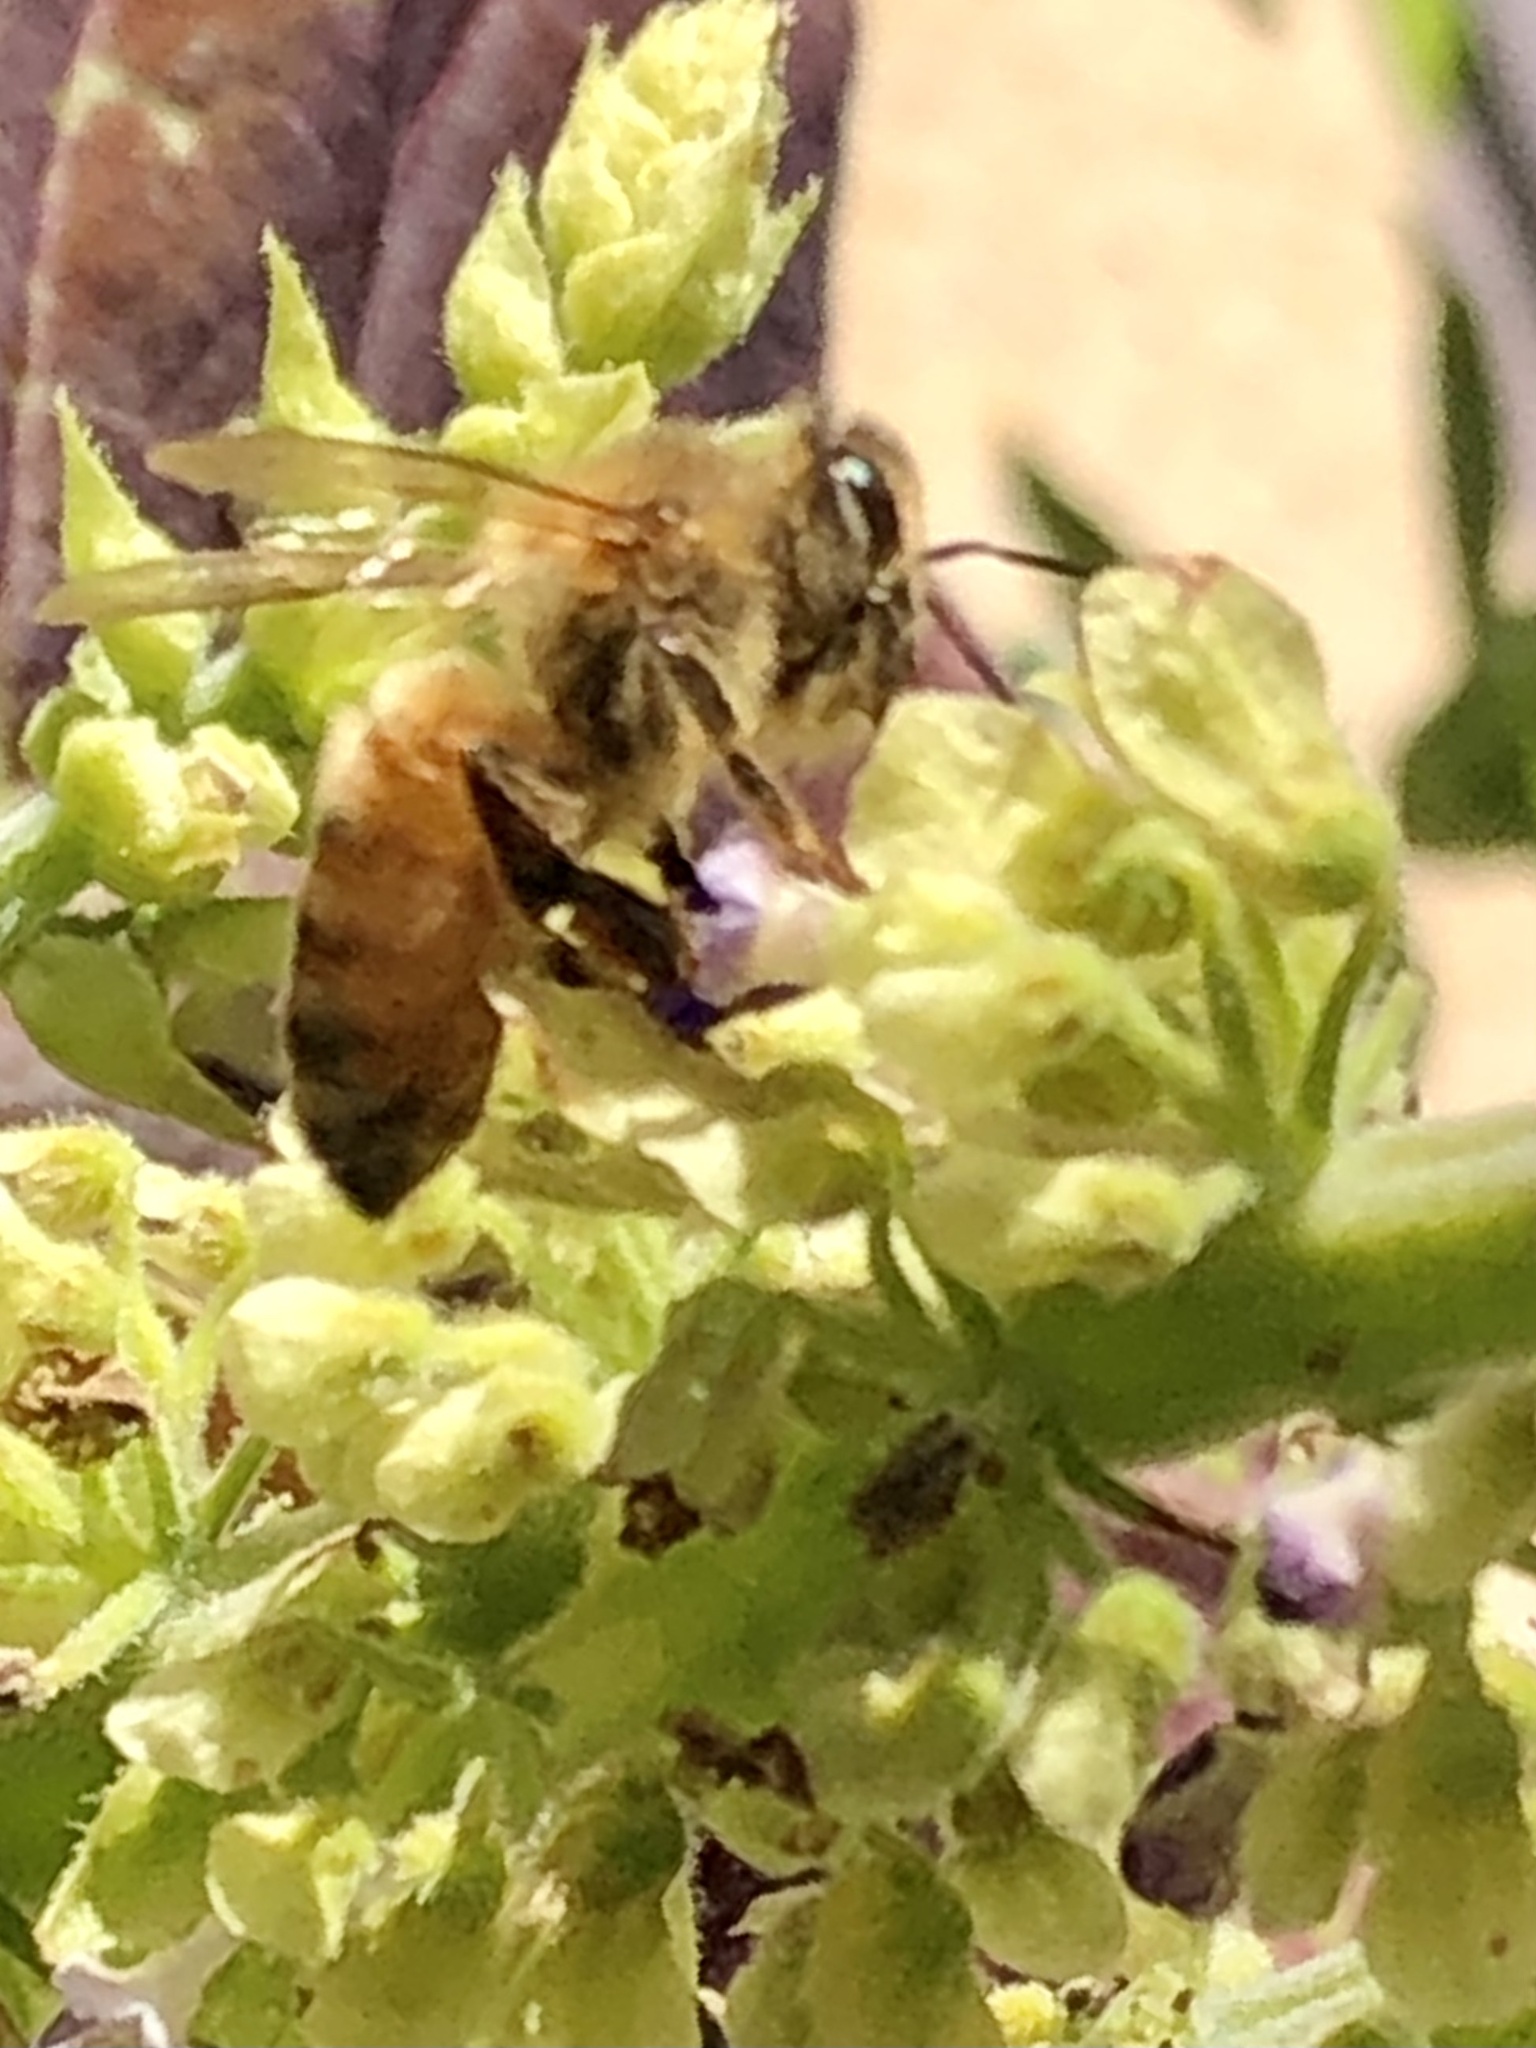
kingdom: Animalia
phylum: Arthropoda
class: Insecta
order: Hymenoptera
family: Apidae
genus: Apis
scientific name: Apis mellifera
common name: Honey bee
